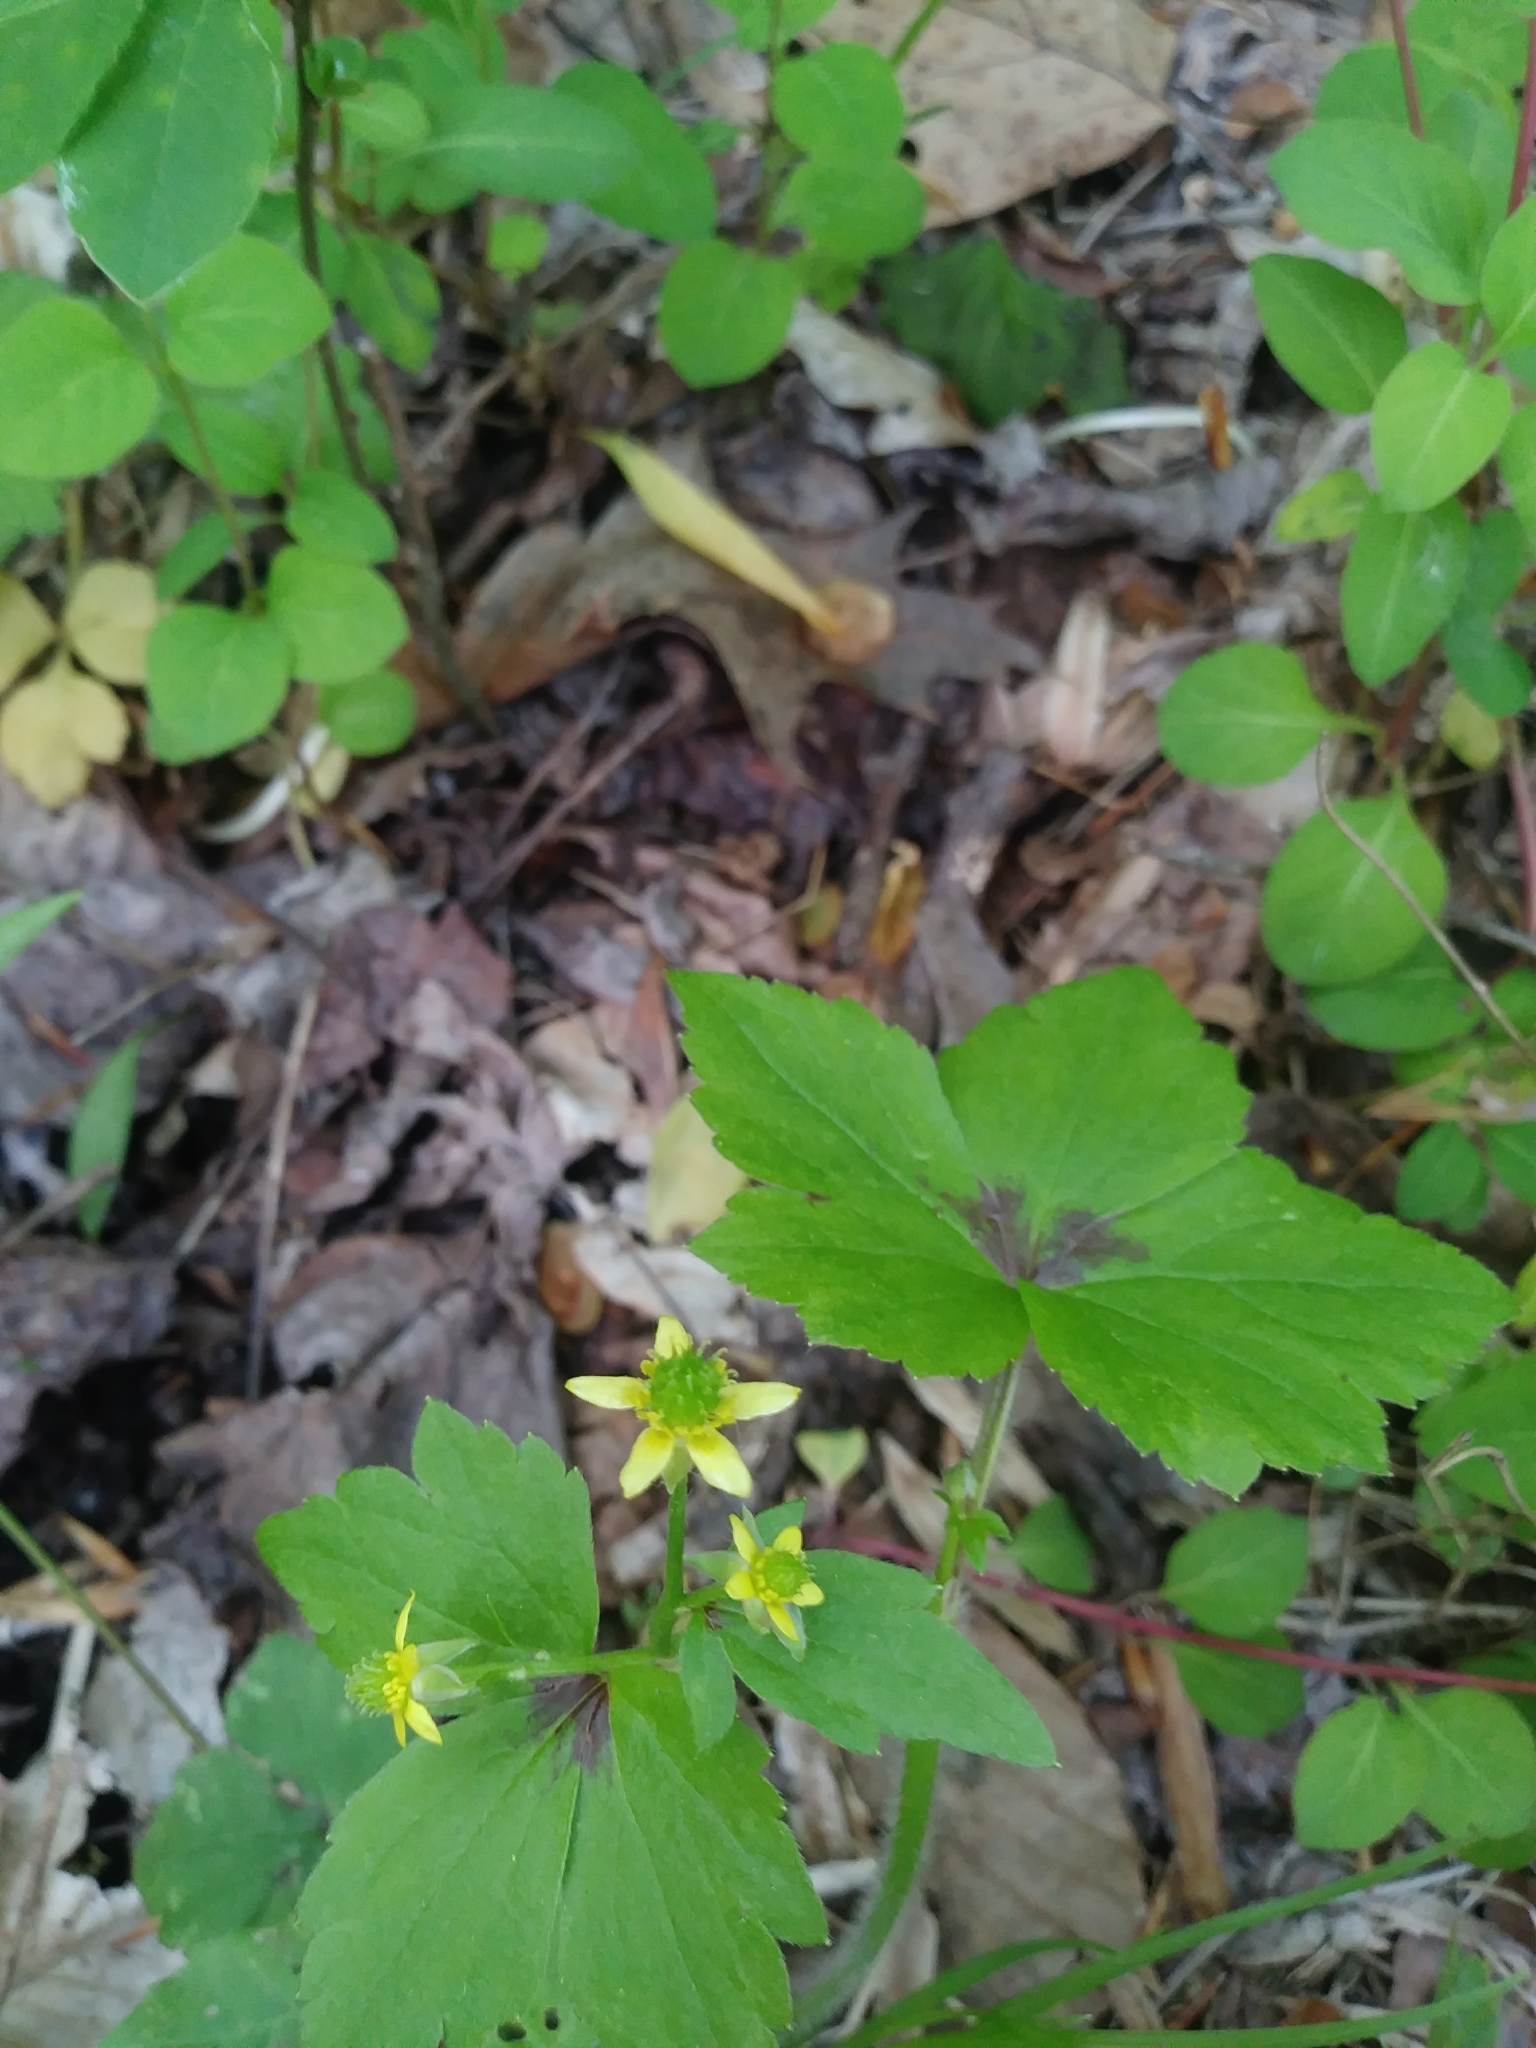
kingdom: Plantae
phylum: Tracheophyta
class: Magnoliopsida
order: Ranunculales
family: Ranunculaceae
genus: Ranunculus
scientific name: Ranunculus recurvatus
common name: Blisterwort
